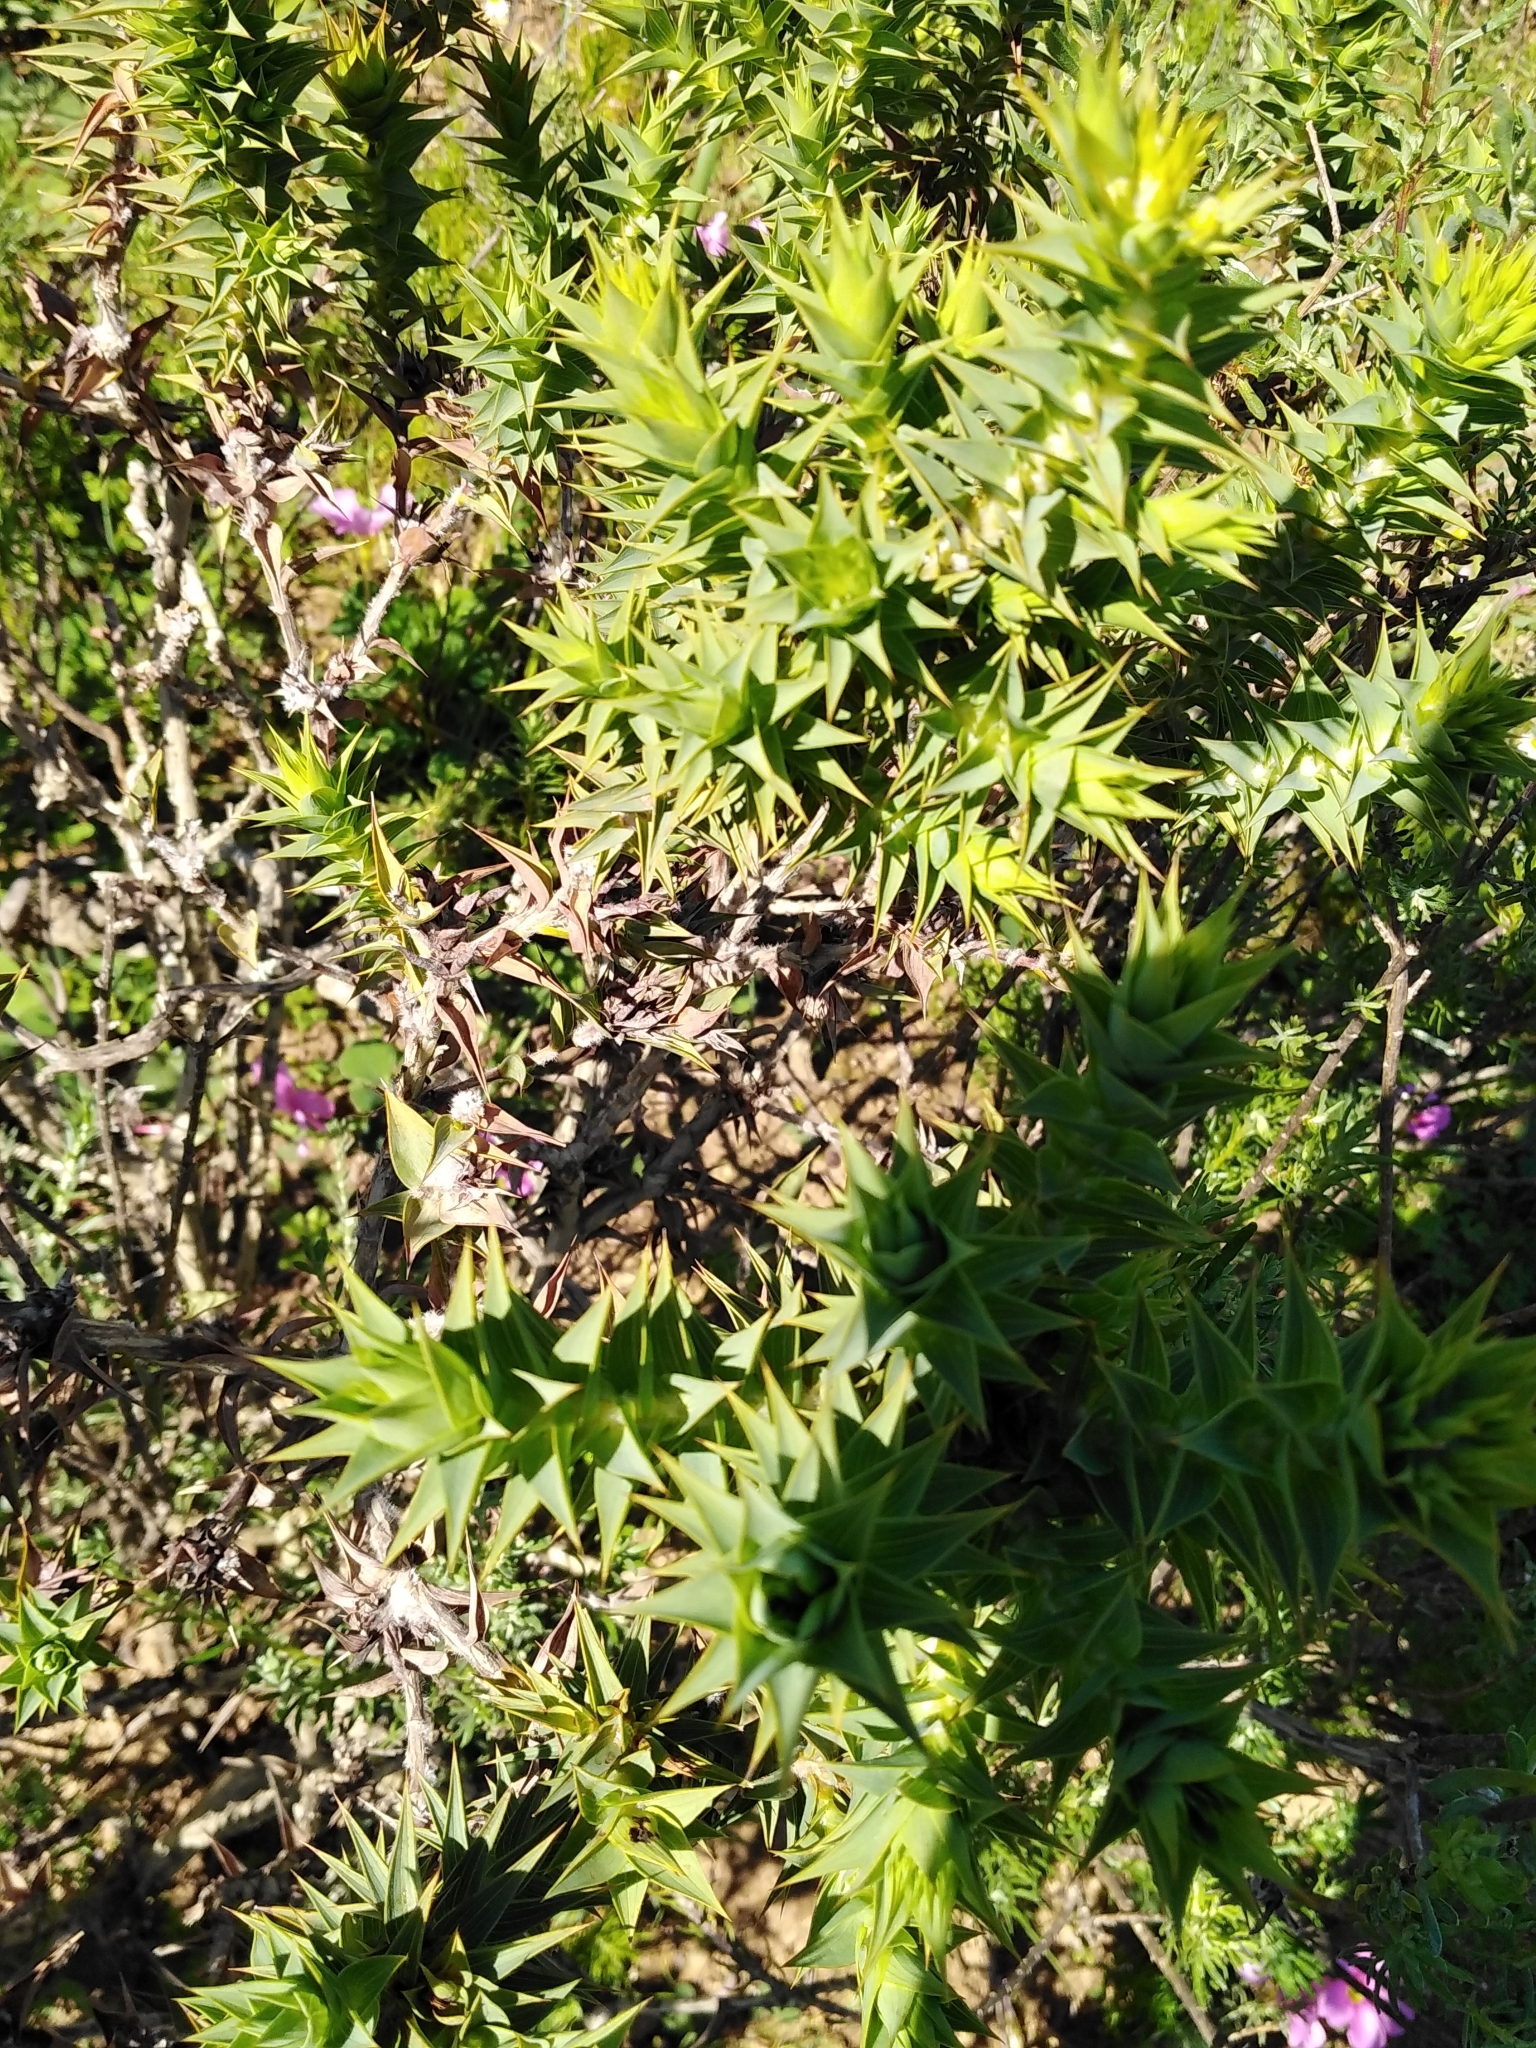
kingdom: Plantae
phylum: Tracheophyta
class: Magnoliopsida
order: Fabales
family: Fabaceae
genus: Aspalathus
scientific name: Aspalathus cordata
